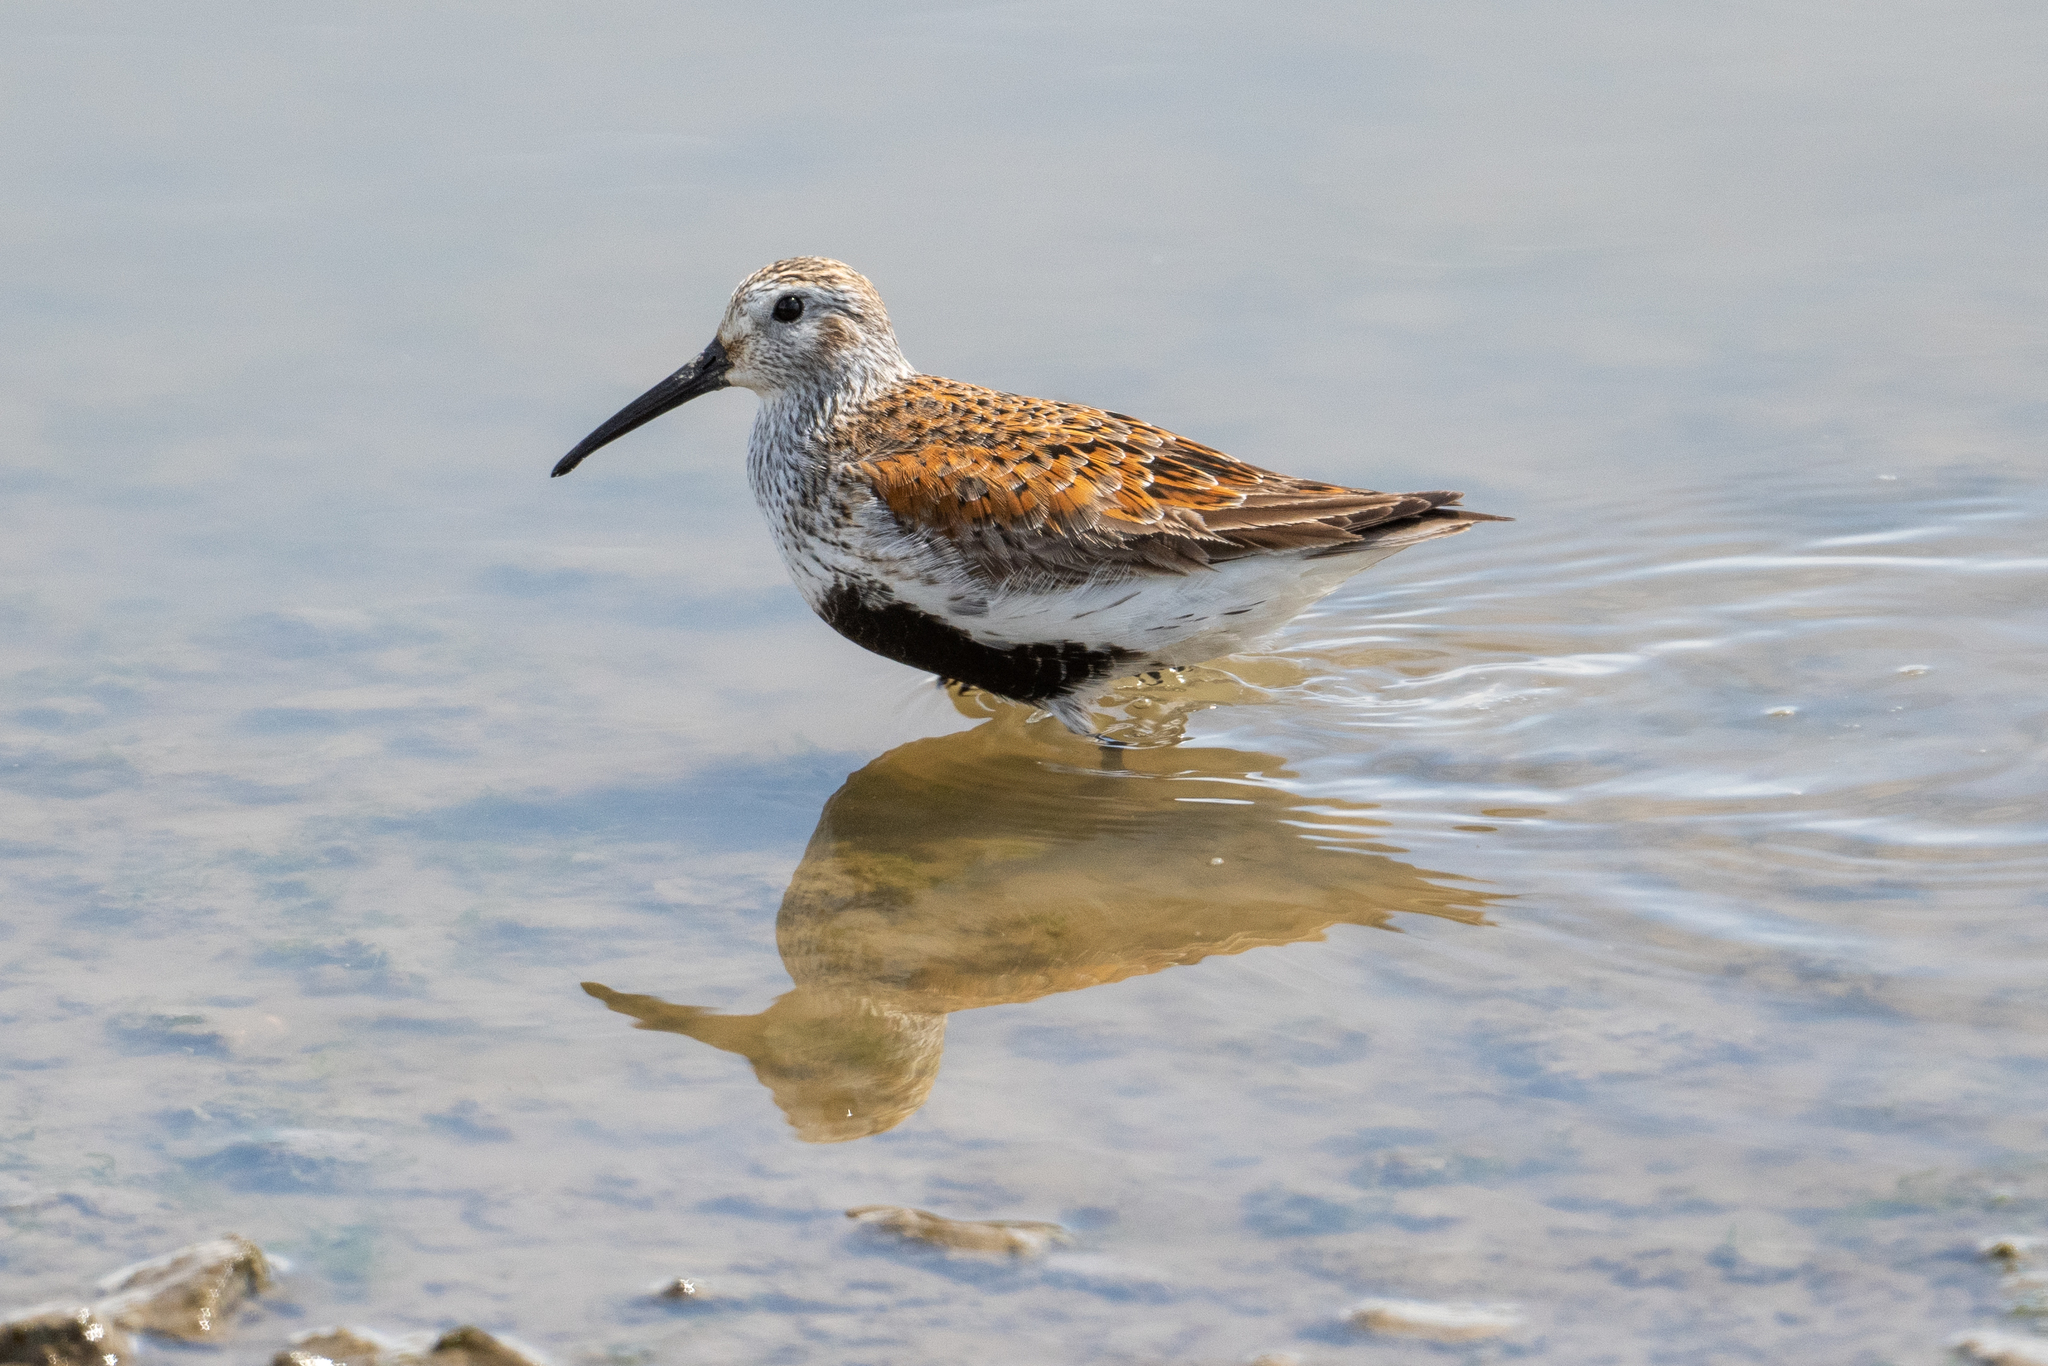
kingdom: Animalia
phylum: Chordata
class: Aves
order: Charadriiformes
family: Scolopacidae
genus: Calidris
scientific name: Calidris alpina
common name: Dunlin
